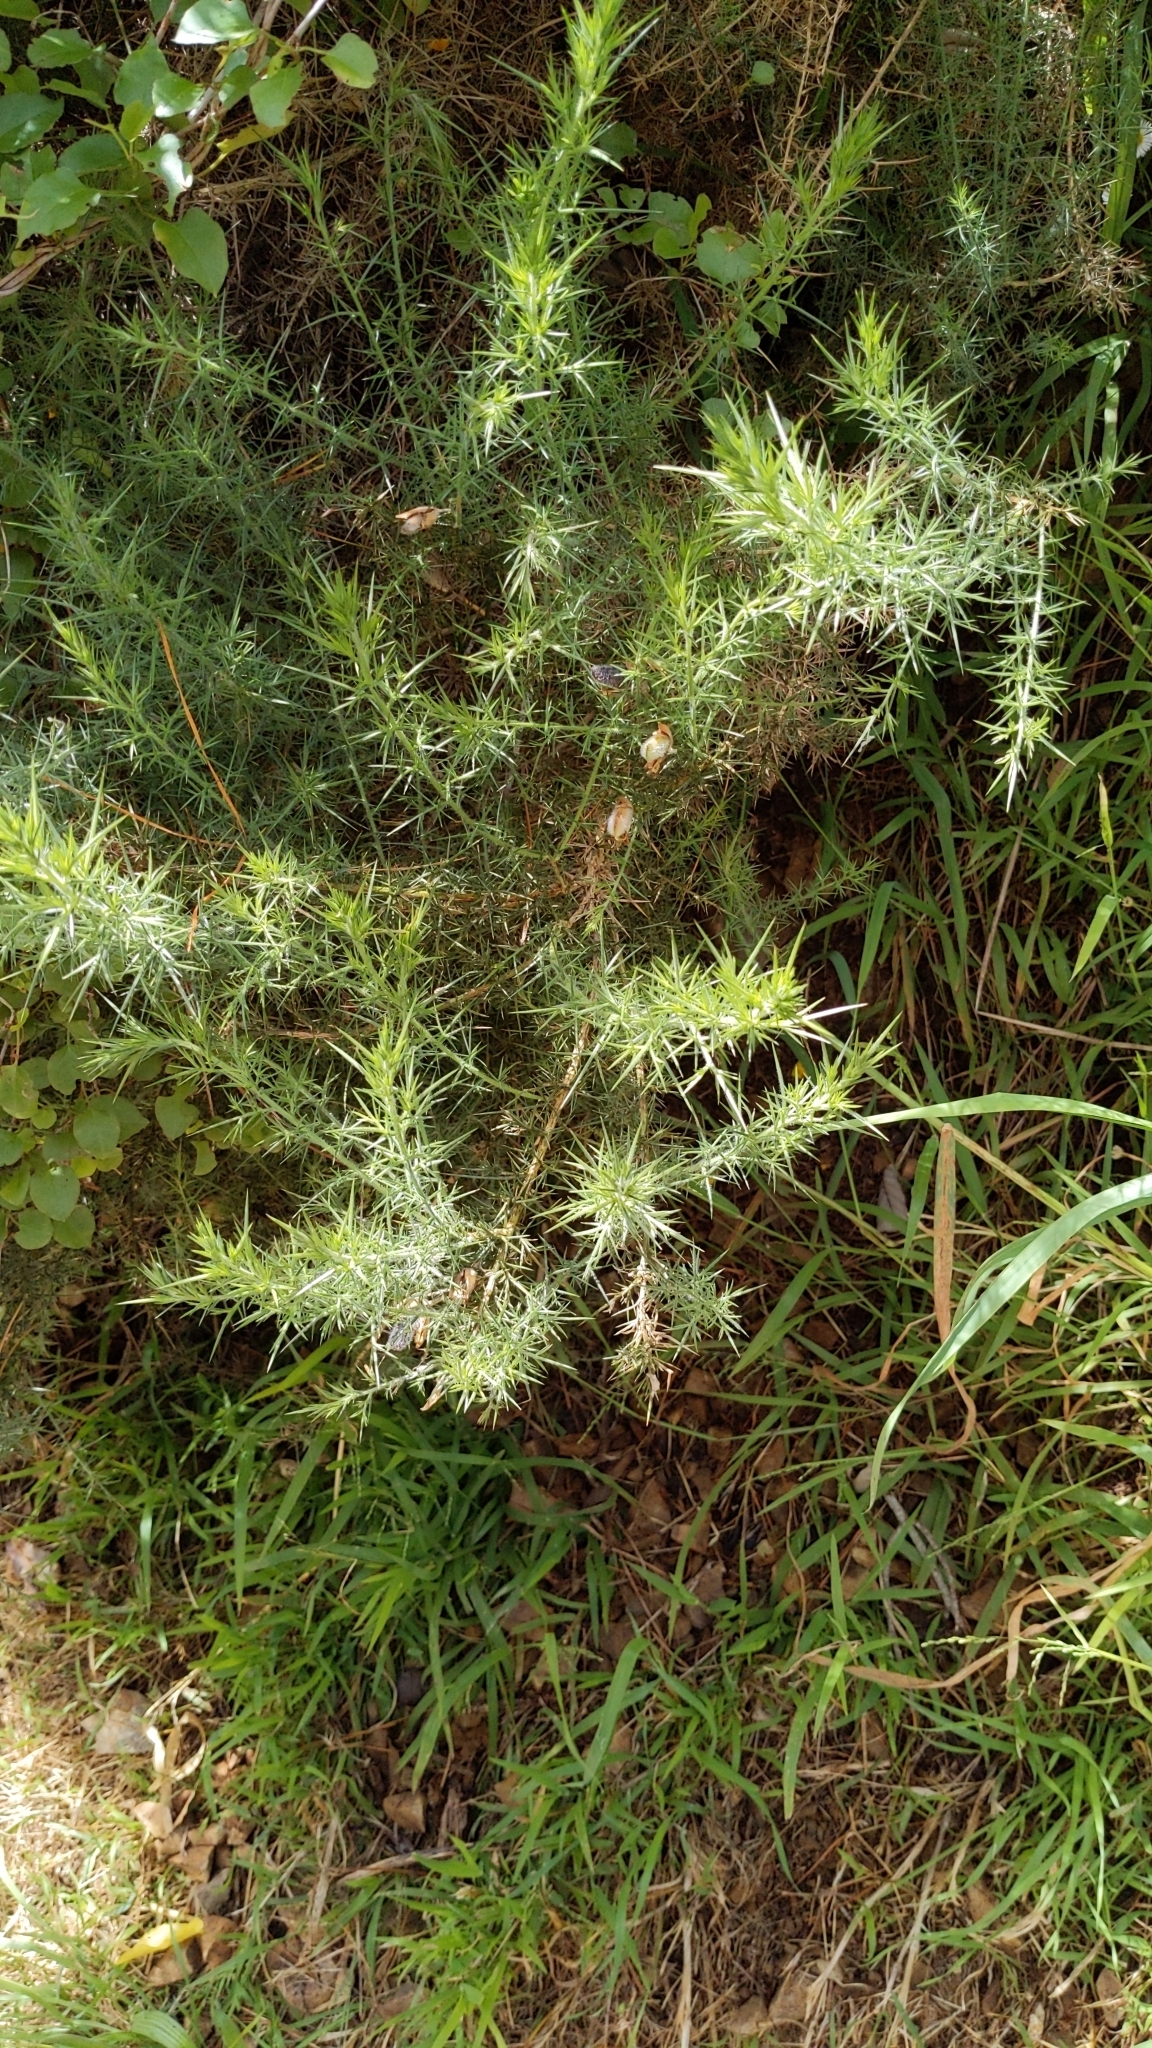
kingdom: Plantae
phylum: Tracheophyta
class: Magnoliopsida
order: Fabales
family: Fabaceae
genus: Ulex
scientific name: Ulex europaeus
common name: Common gorse
